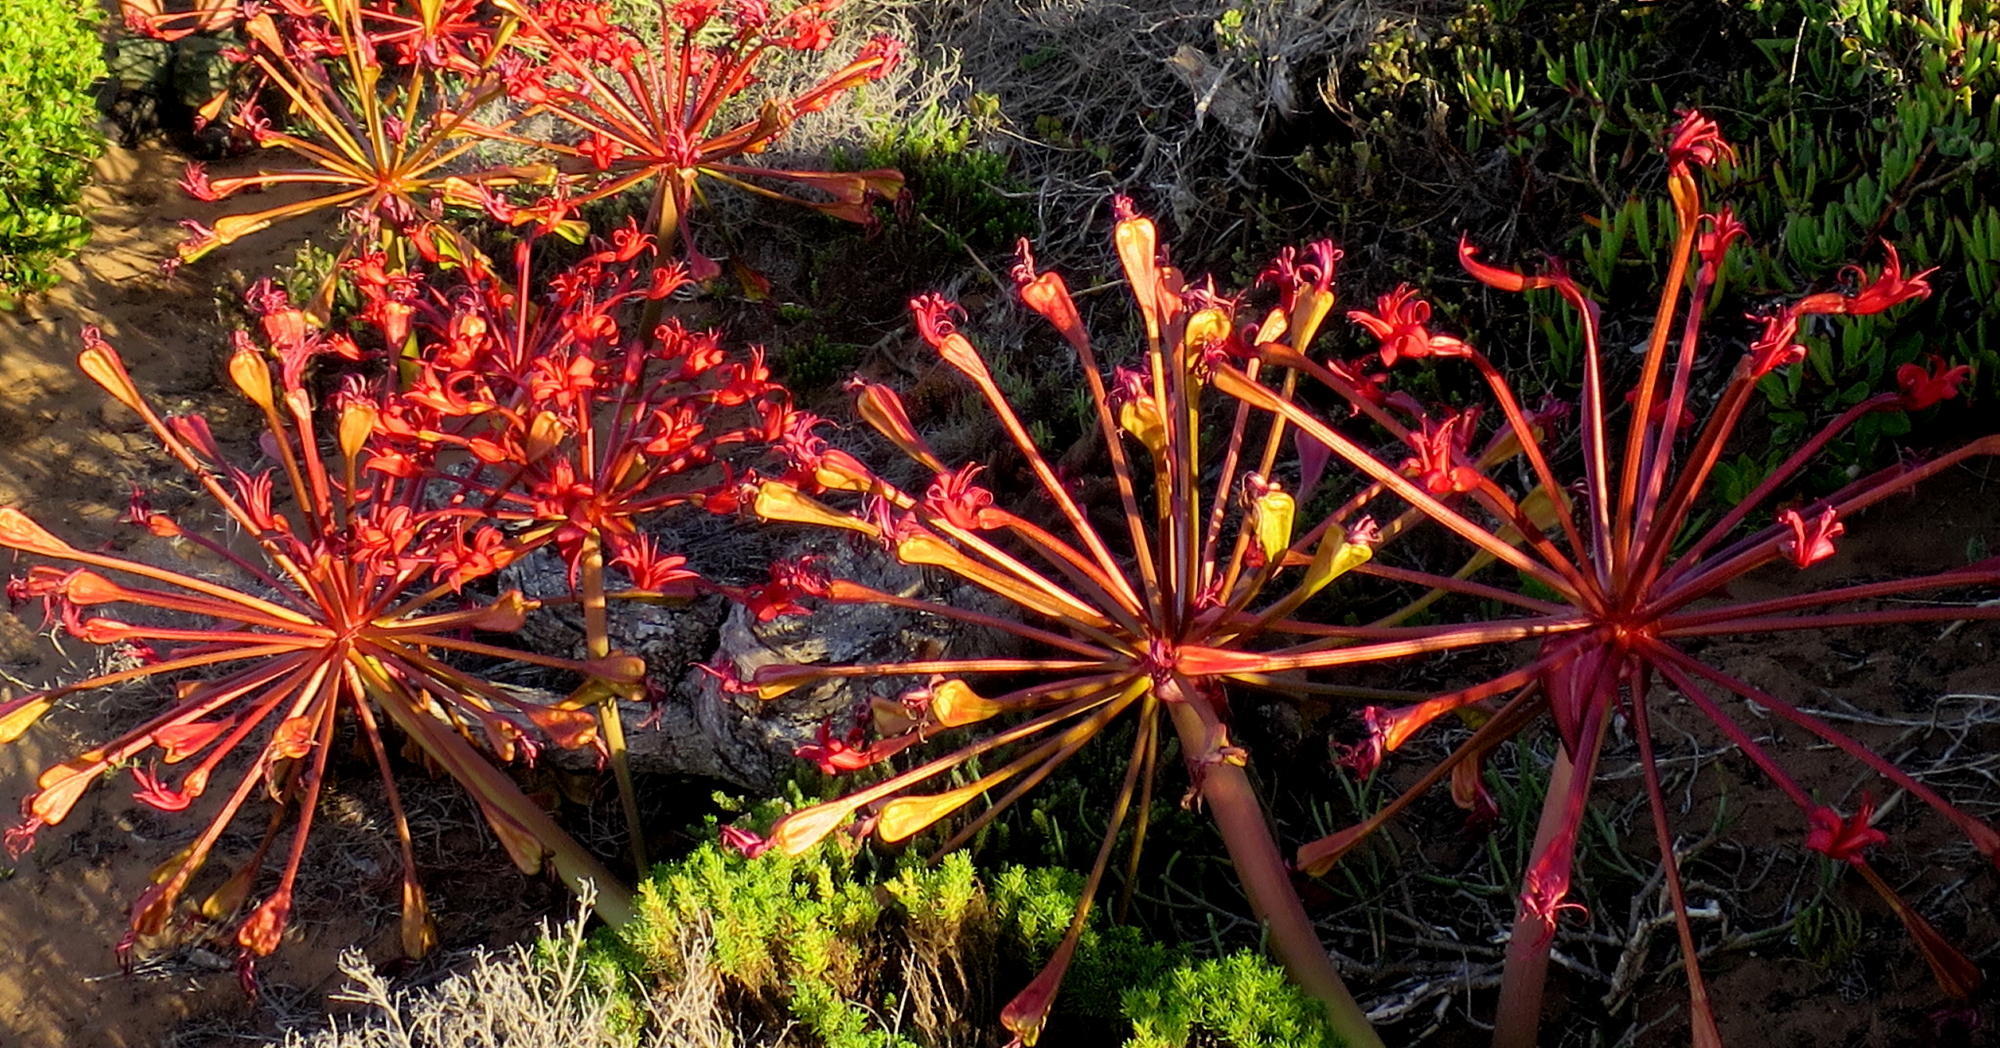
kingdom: Plantae
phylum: Tracheophyta
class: Liliopsida
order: Asparagales
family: Amaryllidaceae
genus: Brunsvigia
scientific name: Brunsvigia orientalis
